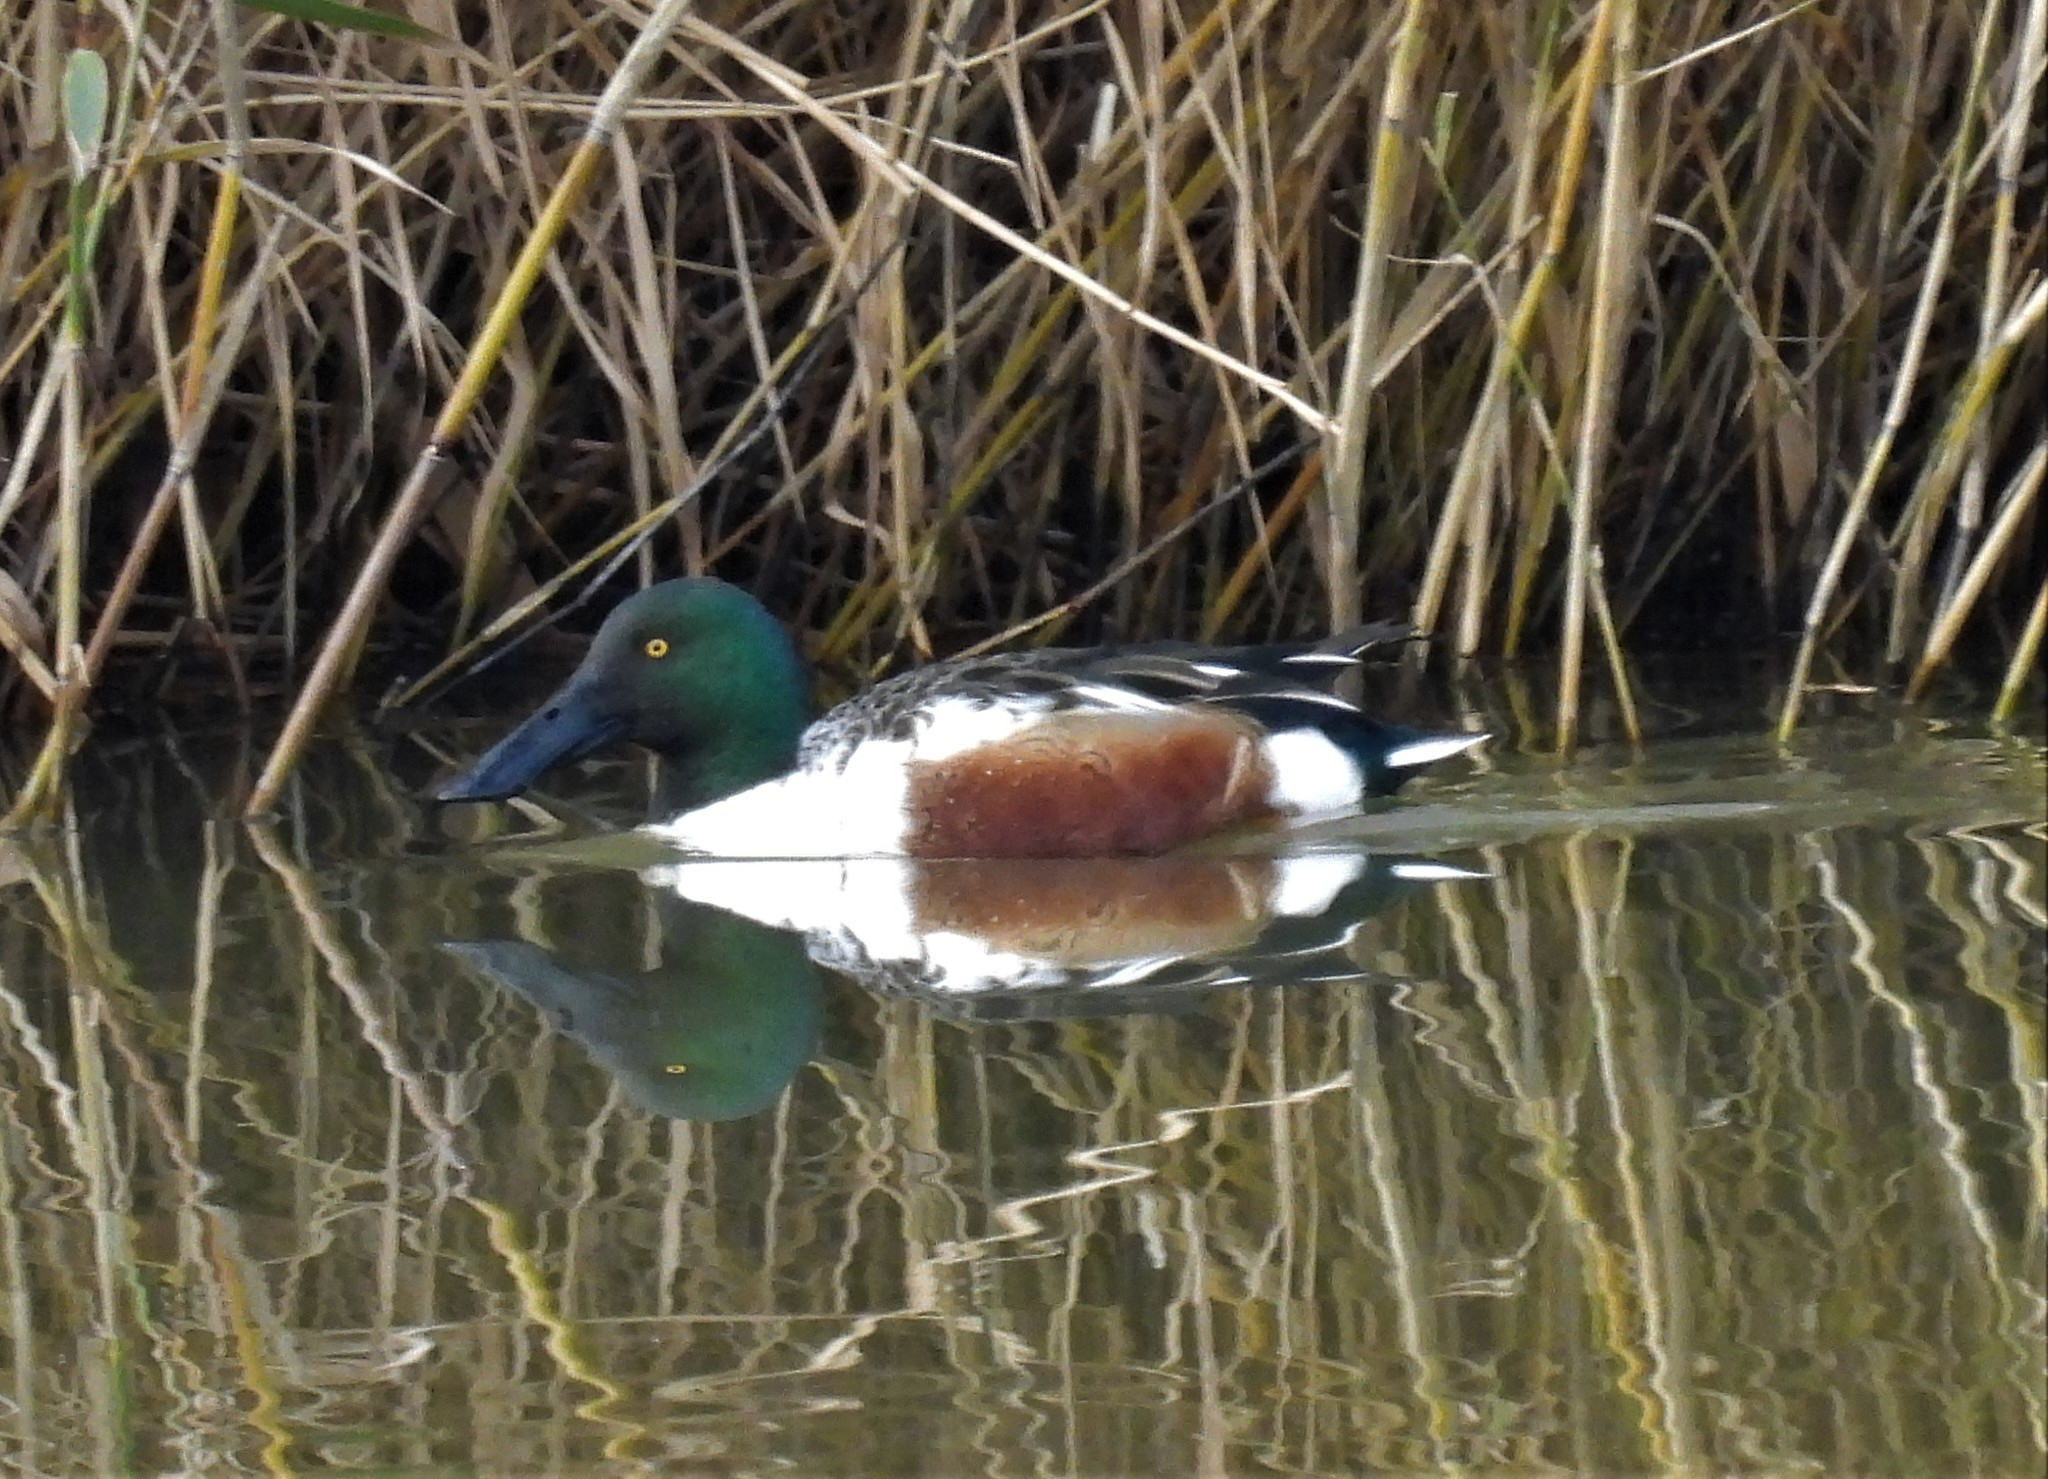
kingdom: Animalia
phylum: Chordata
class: Aves
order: Anseriformes
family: Anatidae
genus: Spatula
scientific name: Spatula clypeata
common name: Northern shoveler
